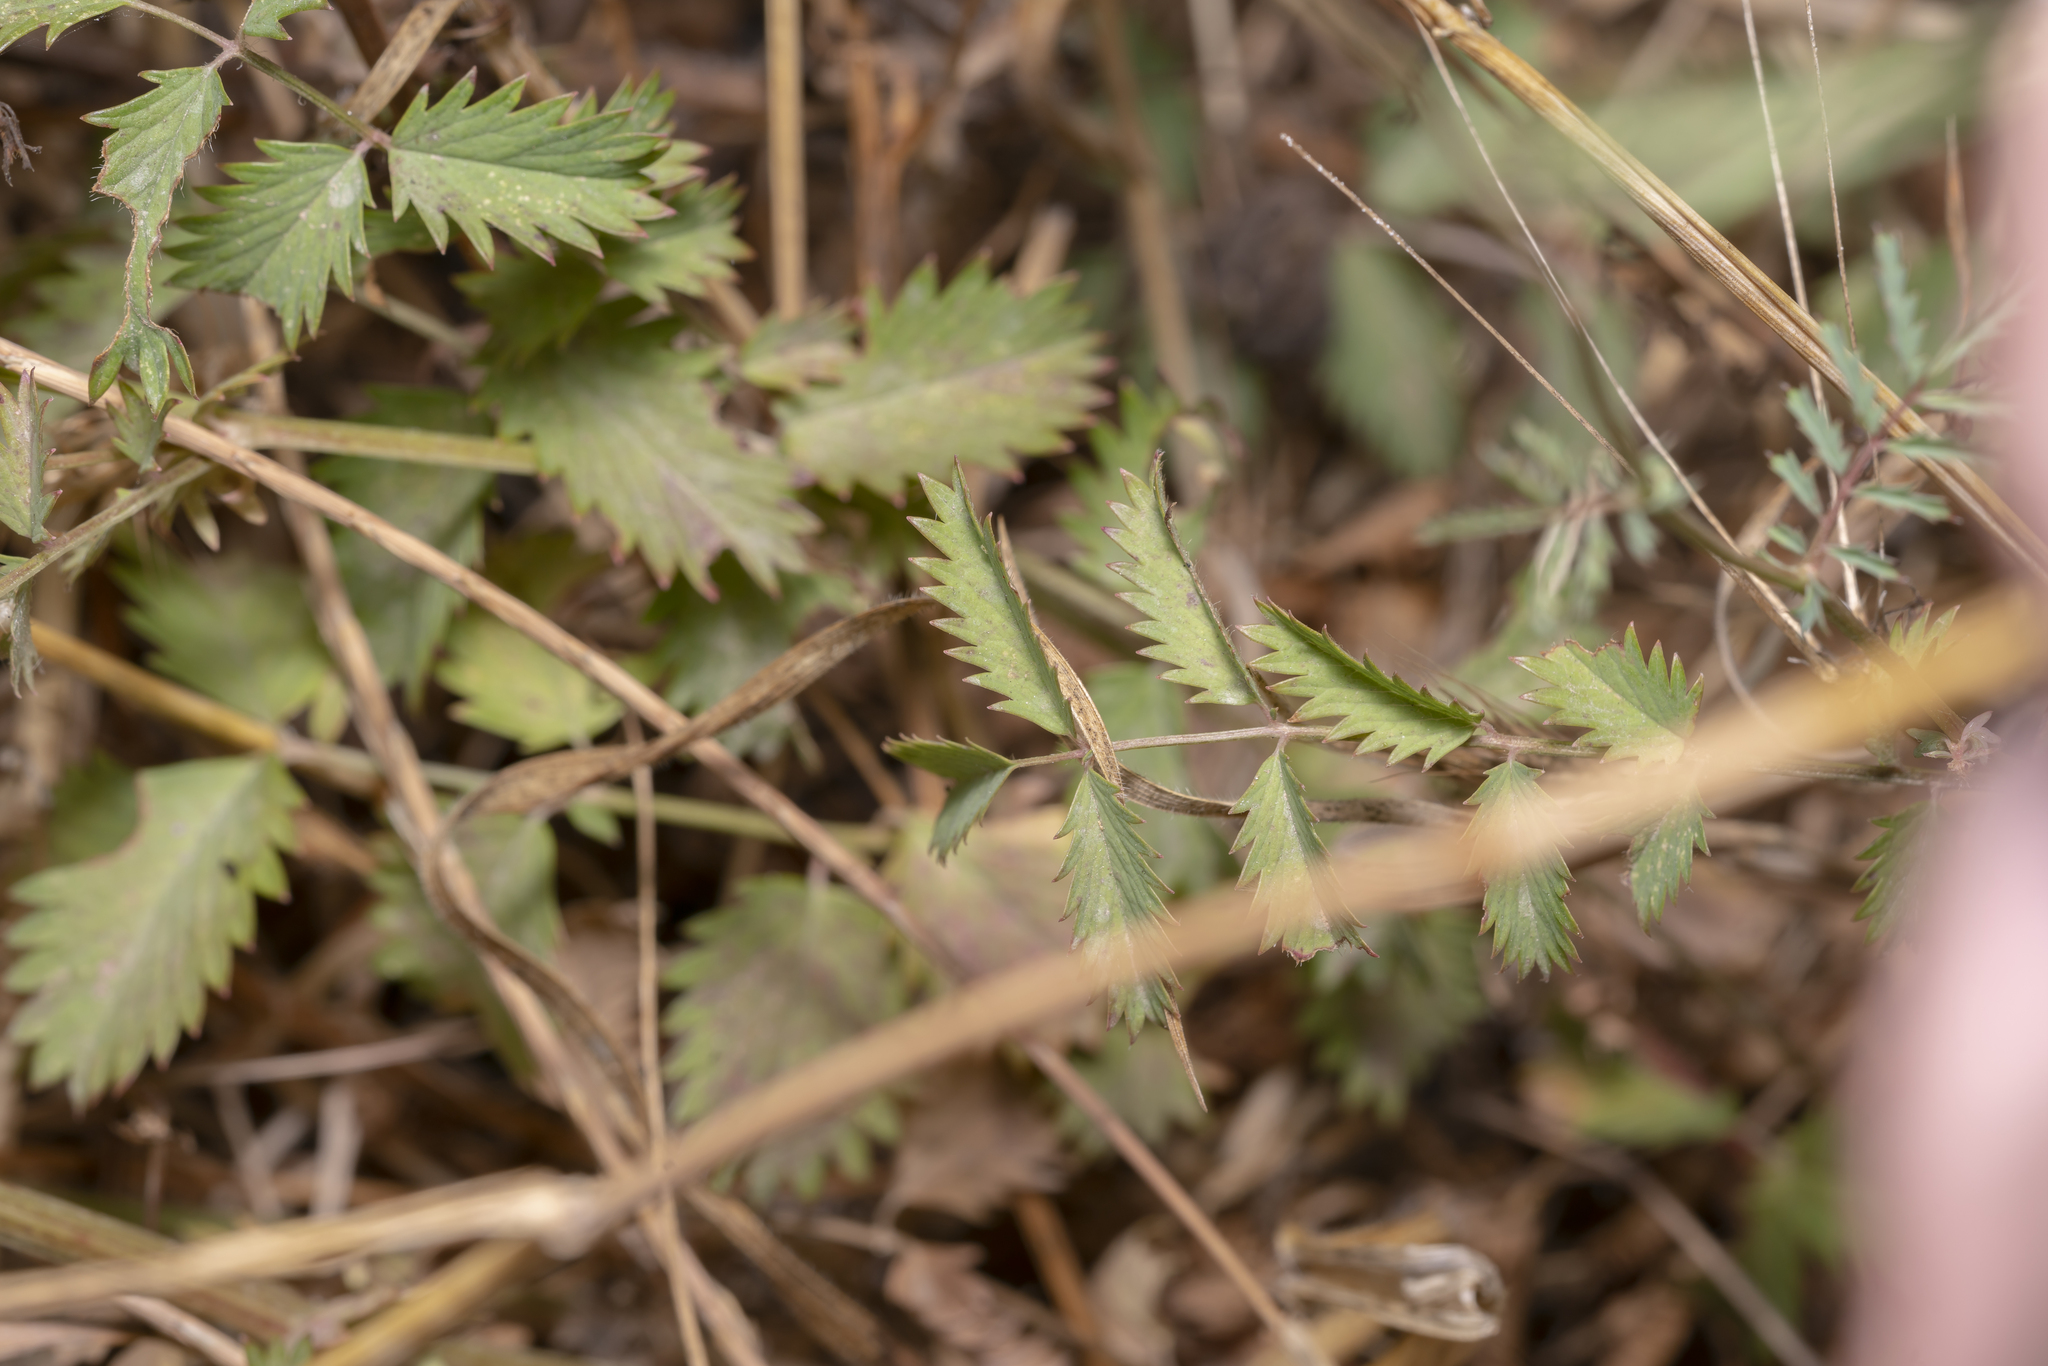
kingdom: Plantae
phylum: Tracheophyta
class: Magnoliopsida
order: Rosales
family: Rosaceae
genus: Poterium
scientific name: Poterium
